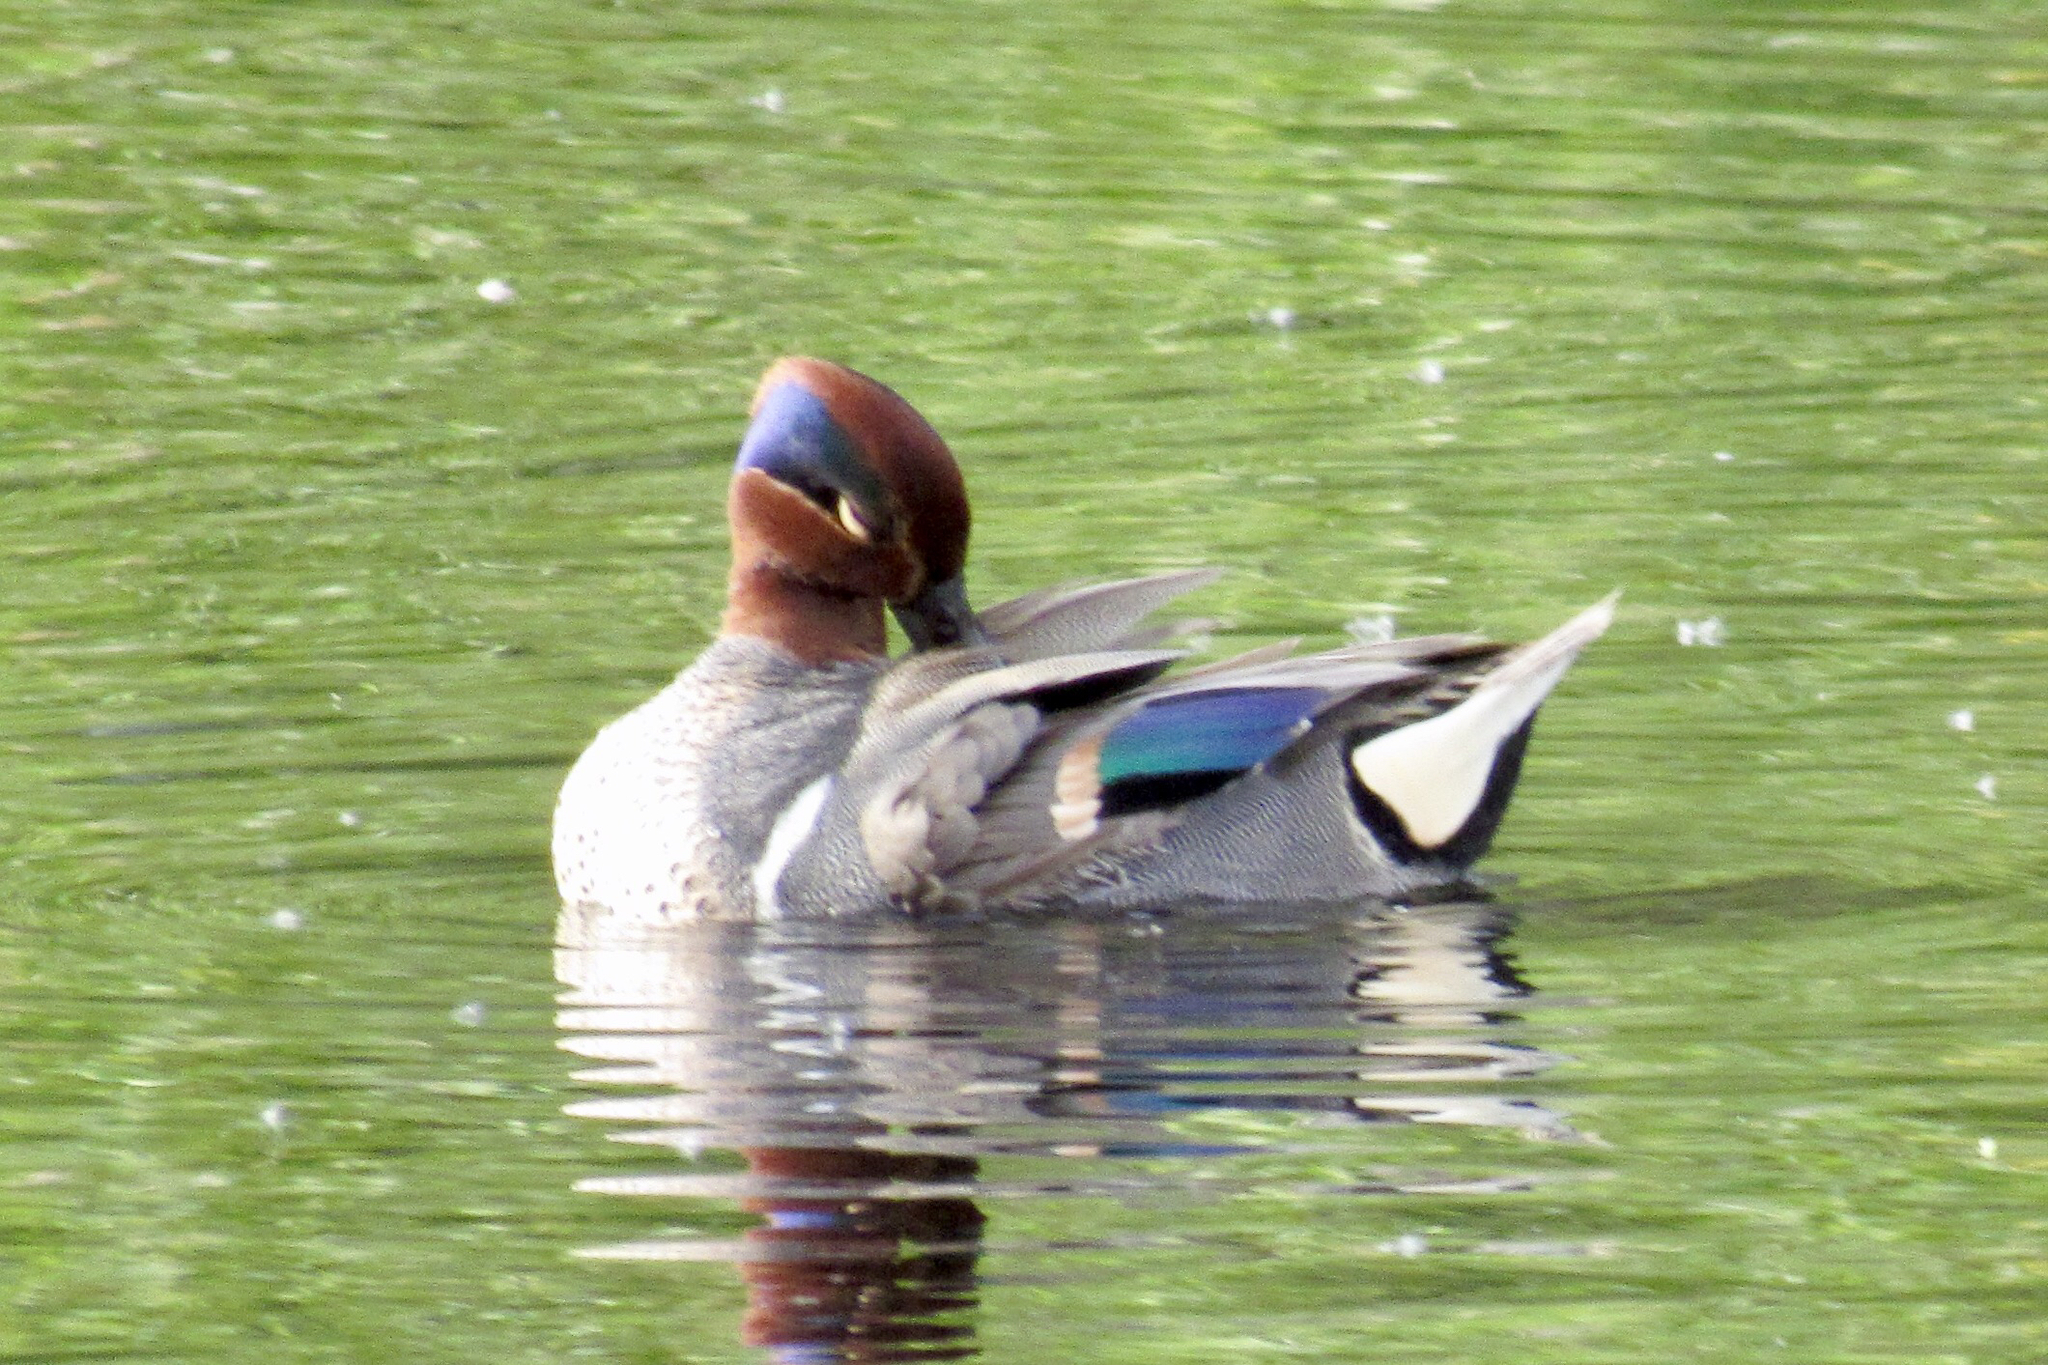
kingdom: Animalia
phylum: Chordata
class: Aves
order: Anseriformes
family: Anatidae
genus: Anas
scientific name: Anas crecca
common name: Eurasian teal
